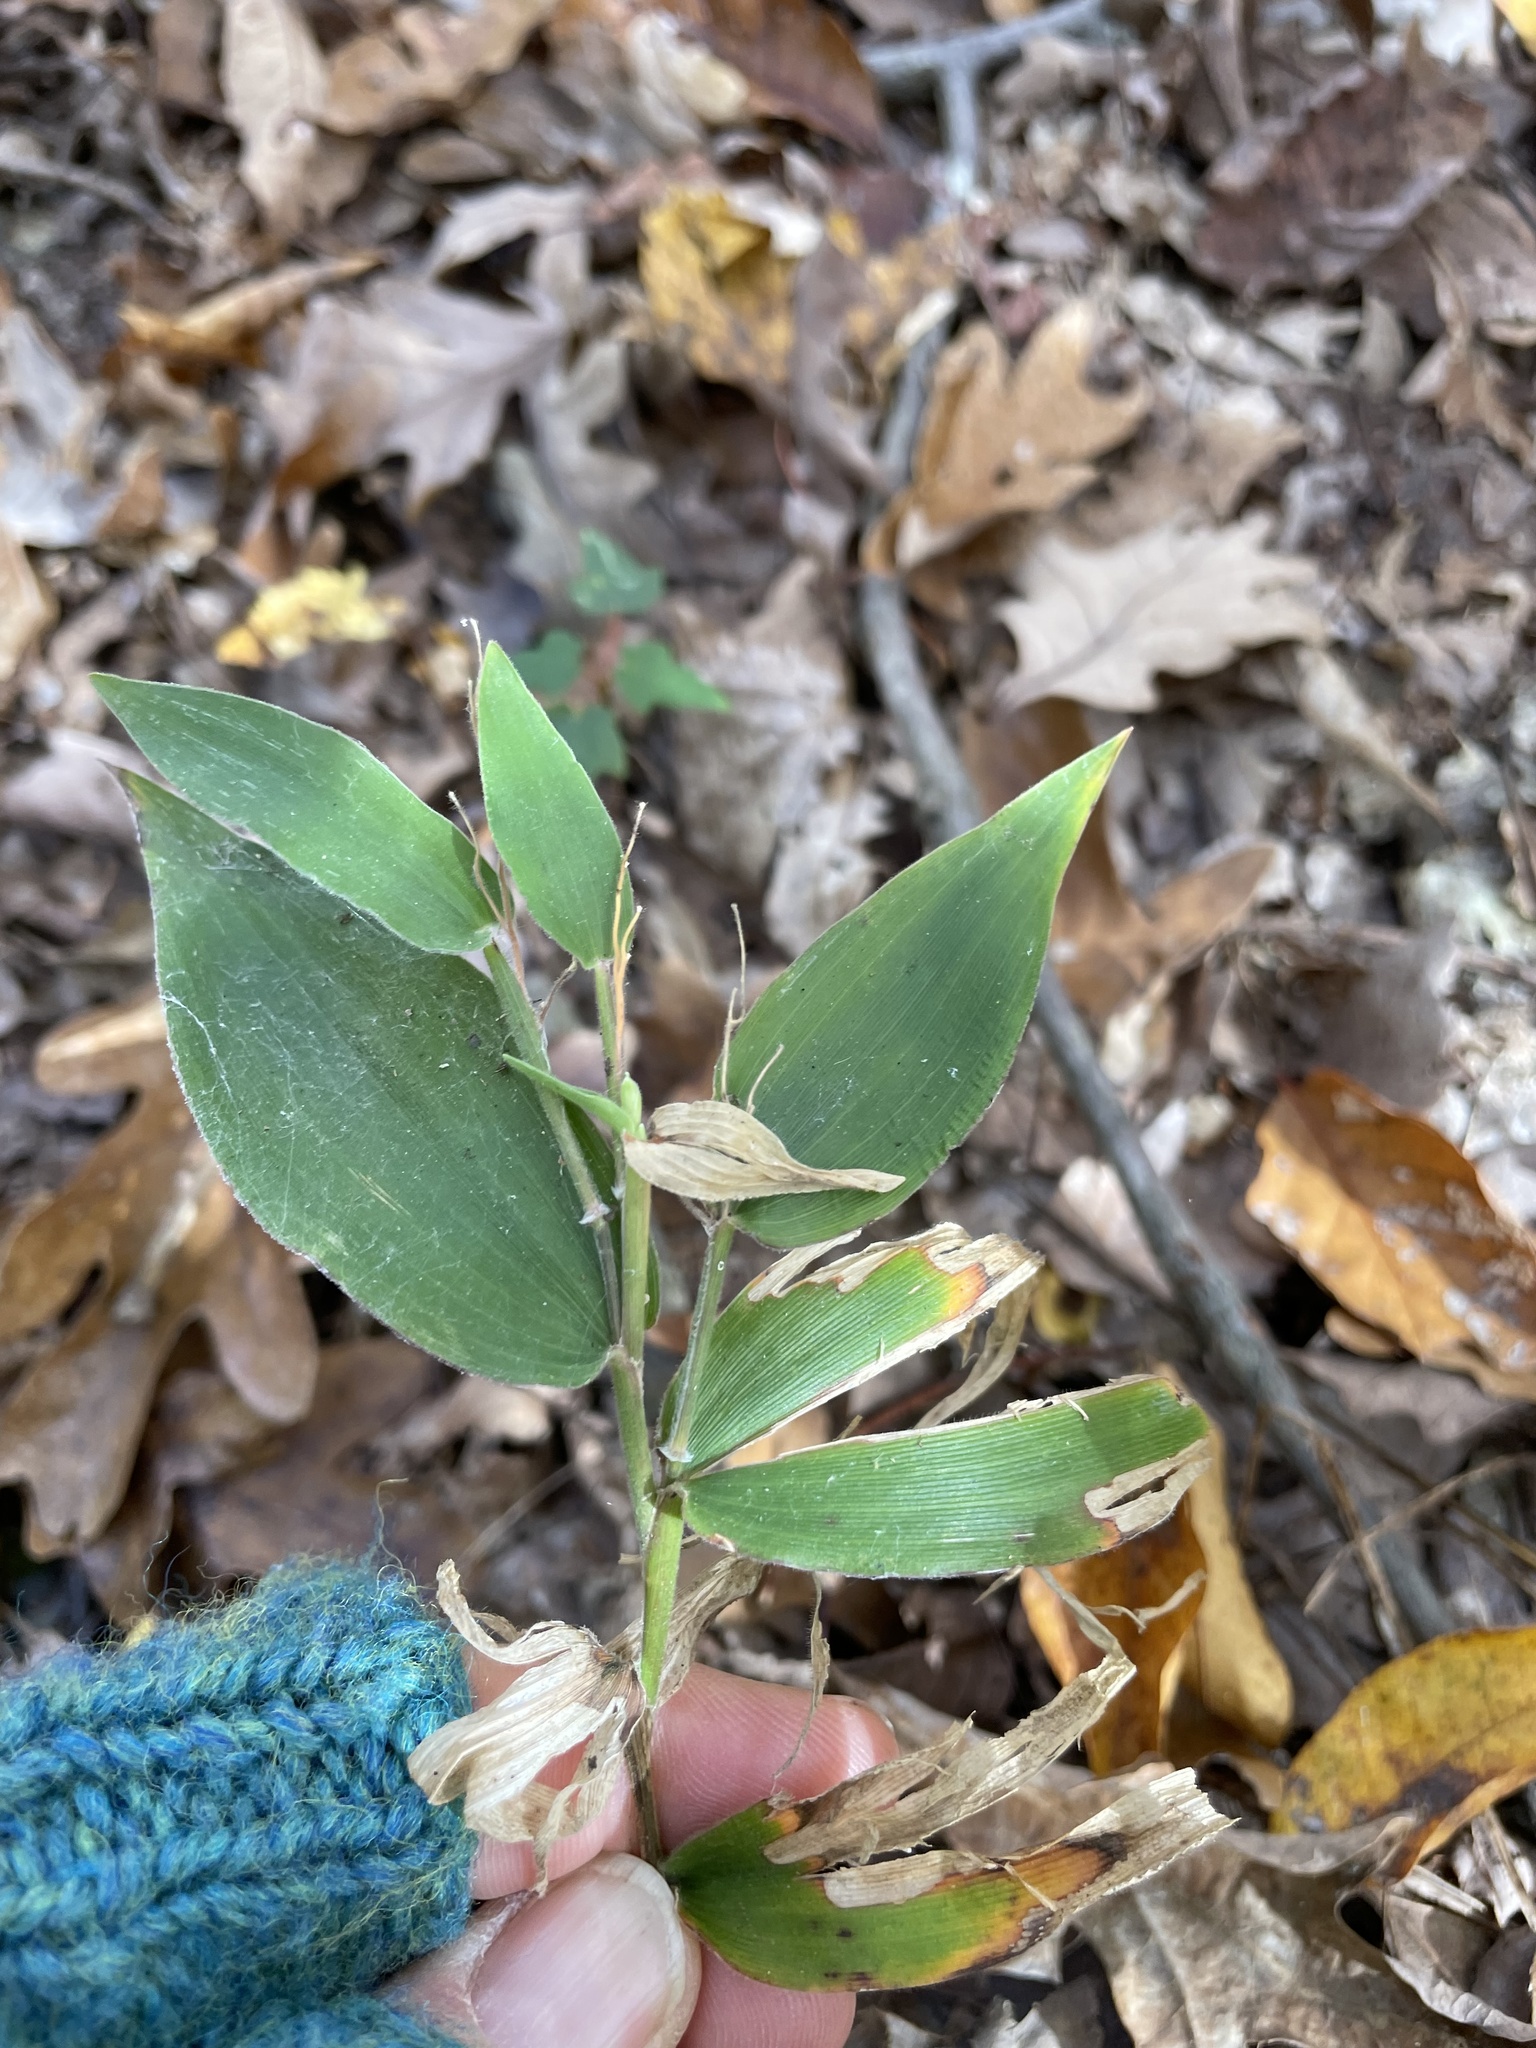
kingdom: Plantae
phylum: Tracheophyta
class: Liliopsida
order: Poales
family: Poaceae
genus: Dichanthelium
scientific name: Dichanthelium boscii
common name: Bosc's panic grass
